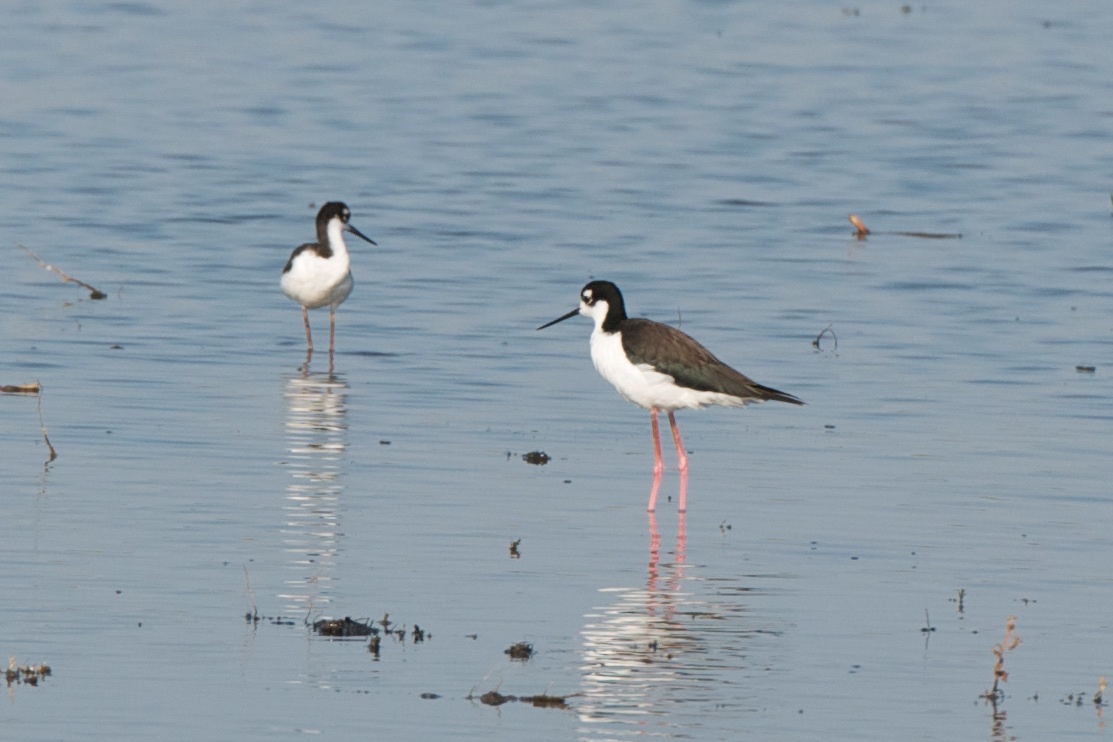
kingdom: Animalia
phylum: Chordata
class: Aves
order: Charadriiformes
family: Recurvirostridae
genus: Himantopus
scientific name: Himantopus mexicanus
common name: Black-necked stilt
